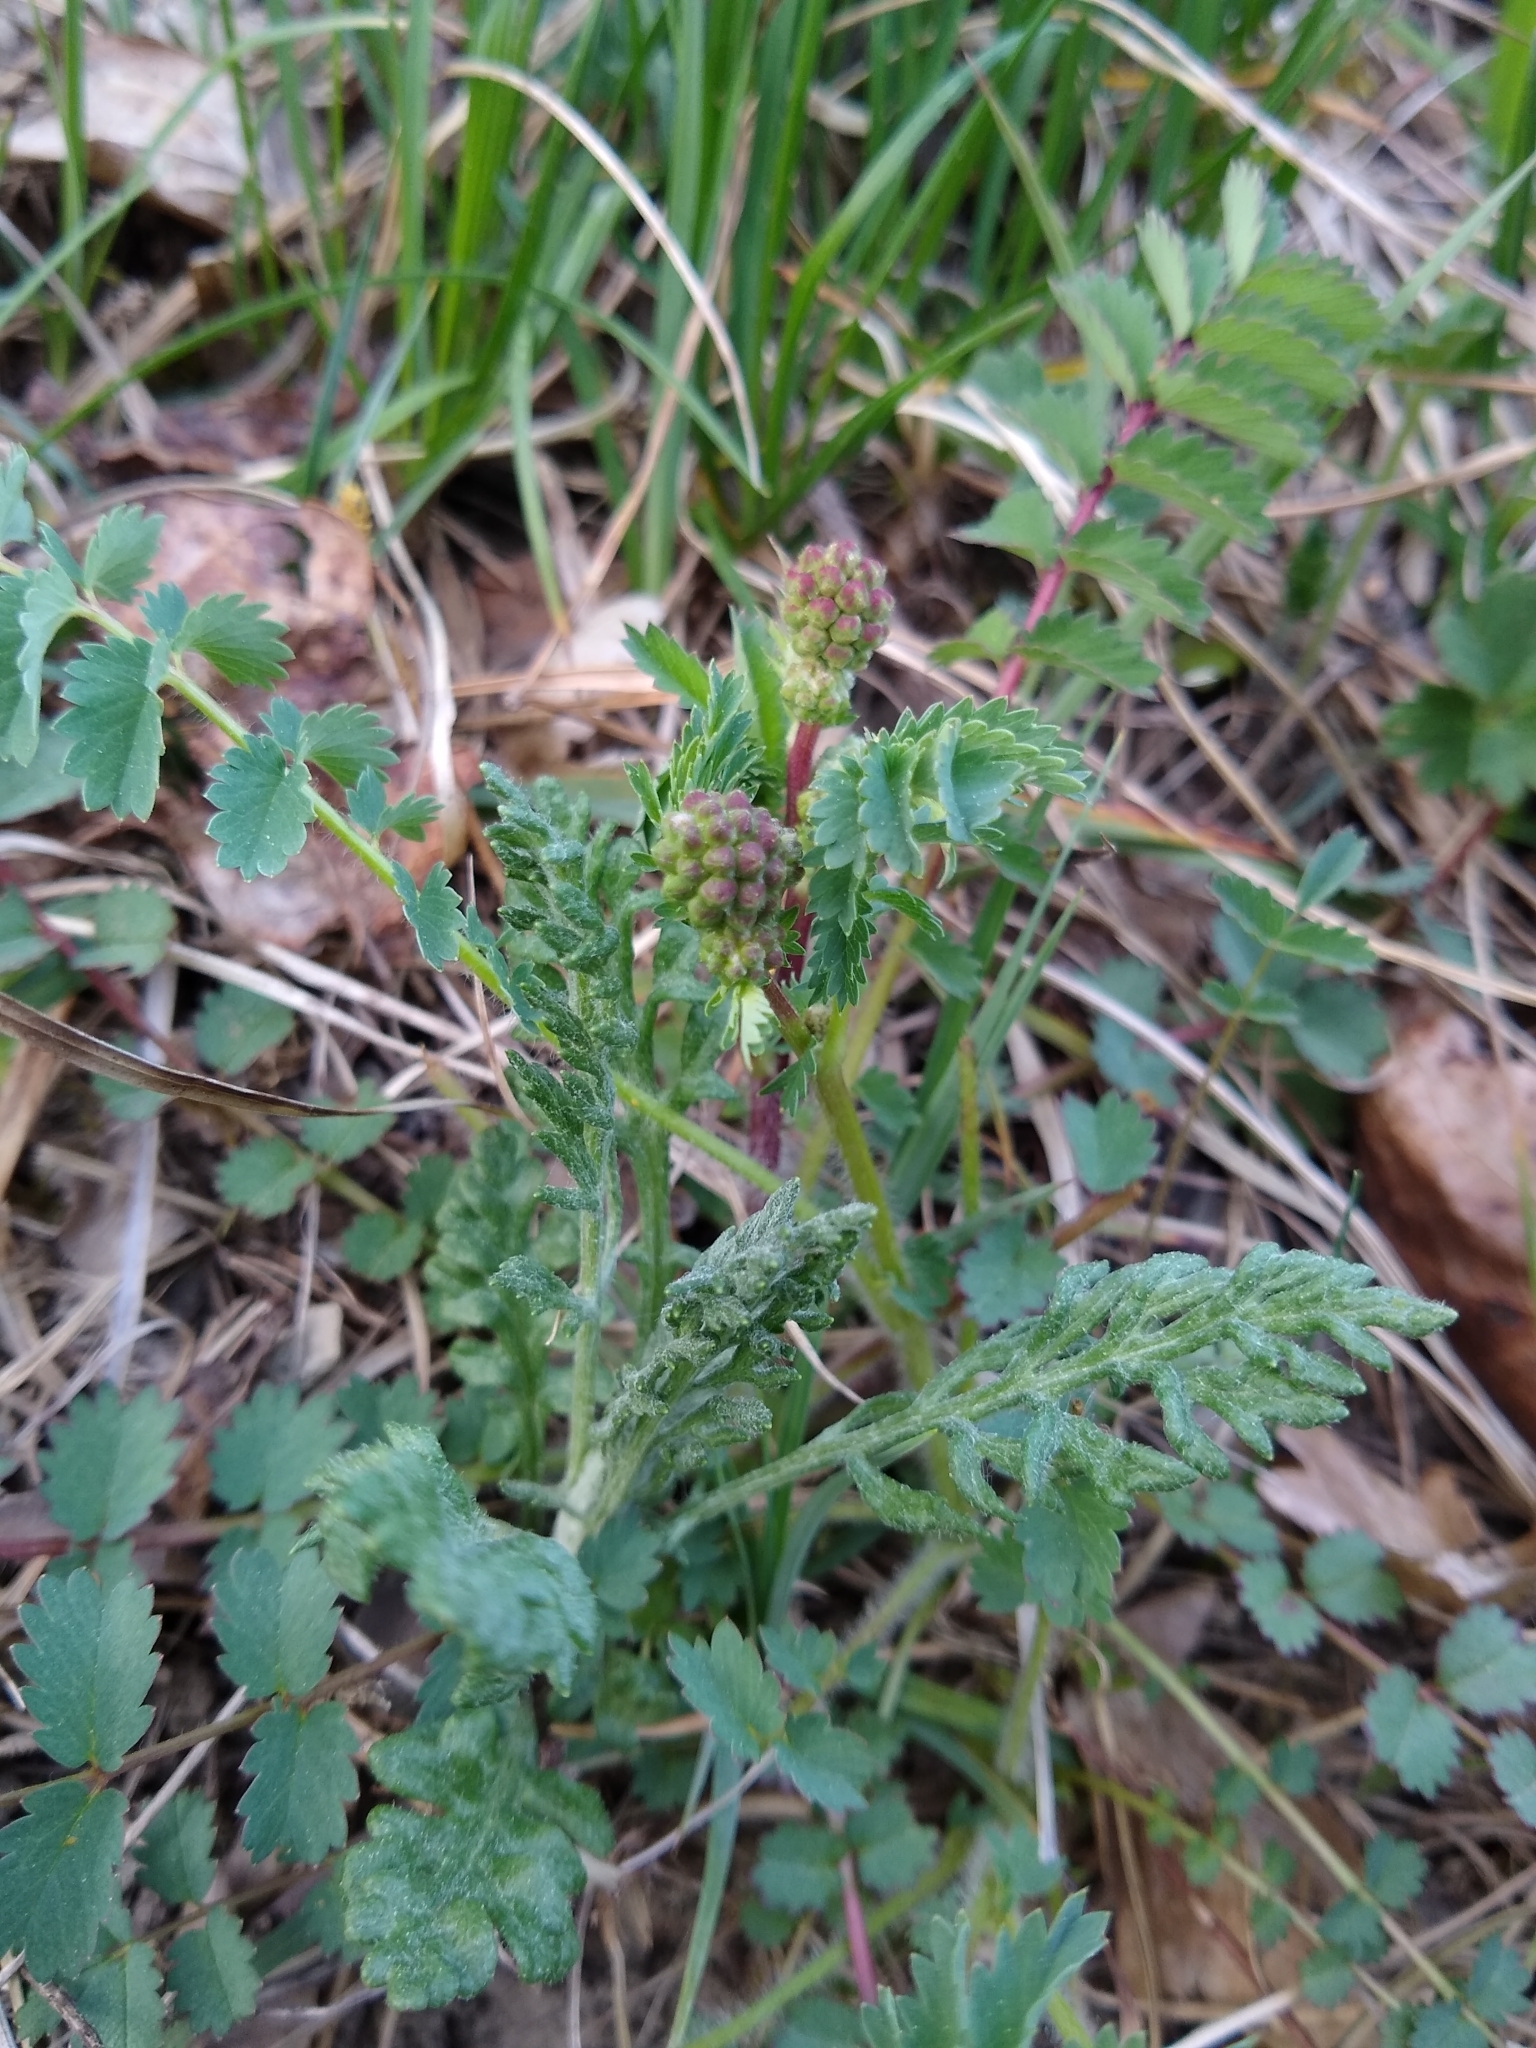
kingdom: Plantae
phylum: Tracheophyta
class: Magnoliopsida
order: Rosales
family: Rosaceae
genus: Poterium
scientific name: Poterium sanguisorba
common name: Salad burnet
